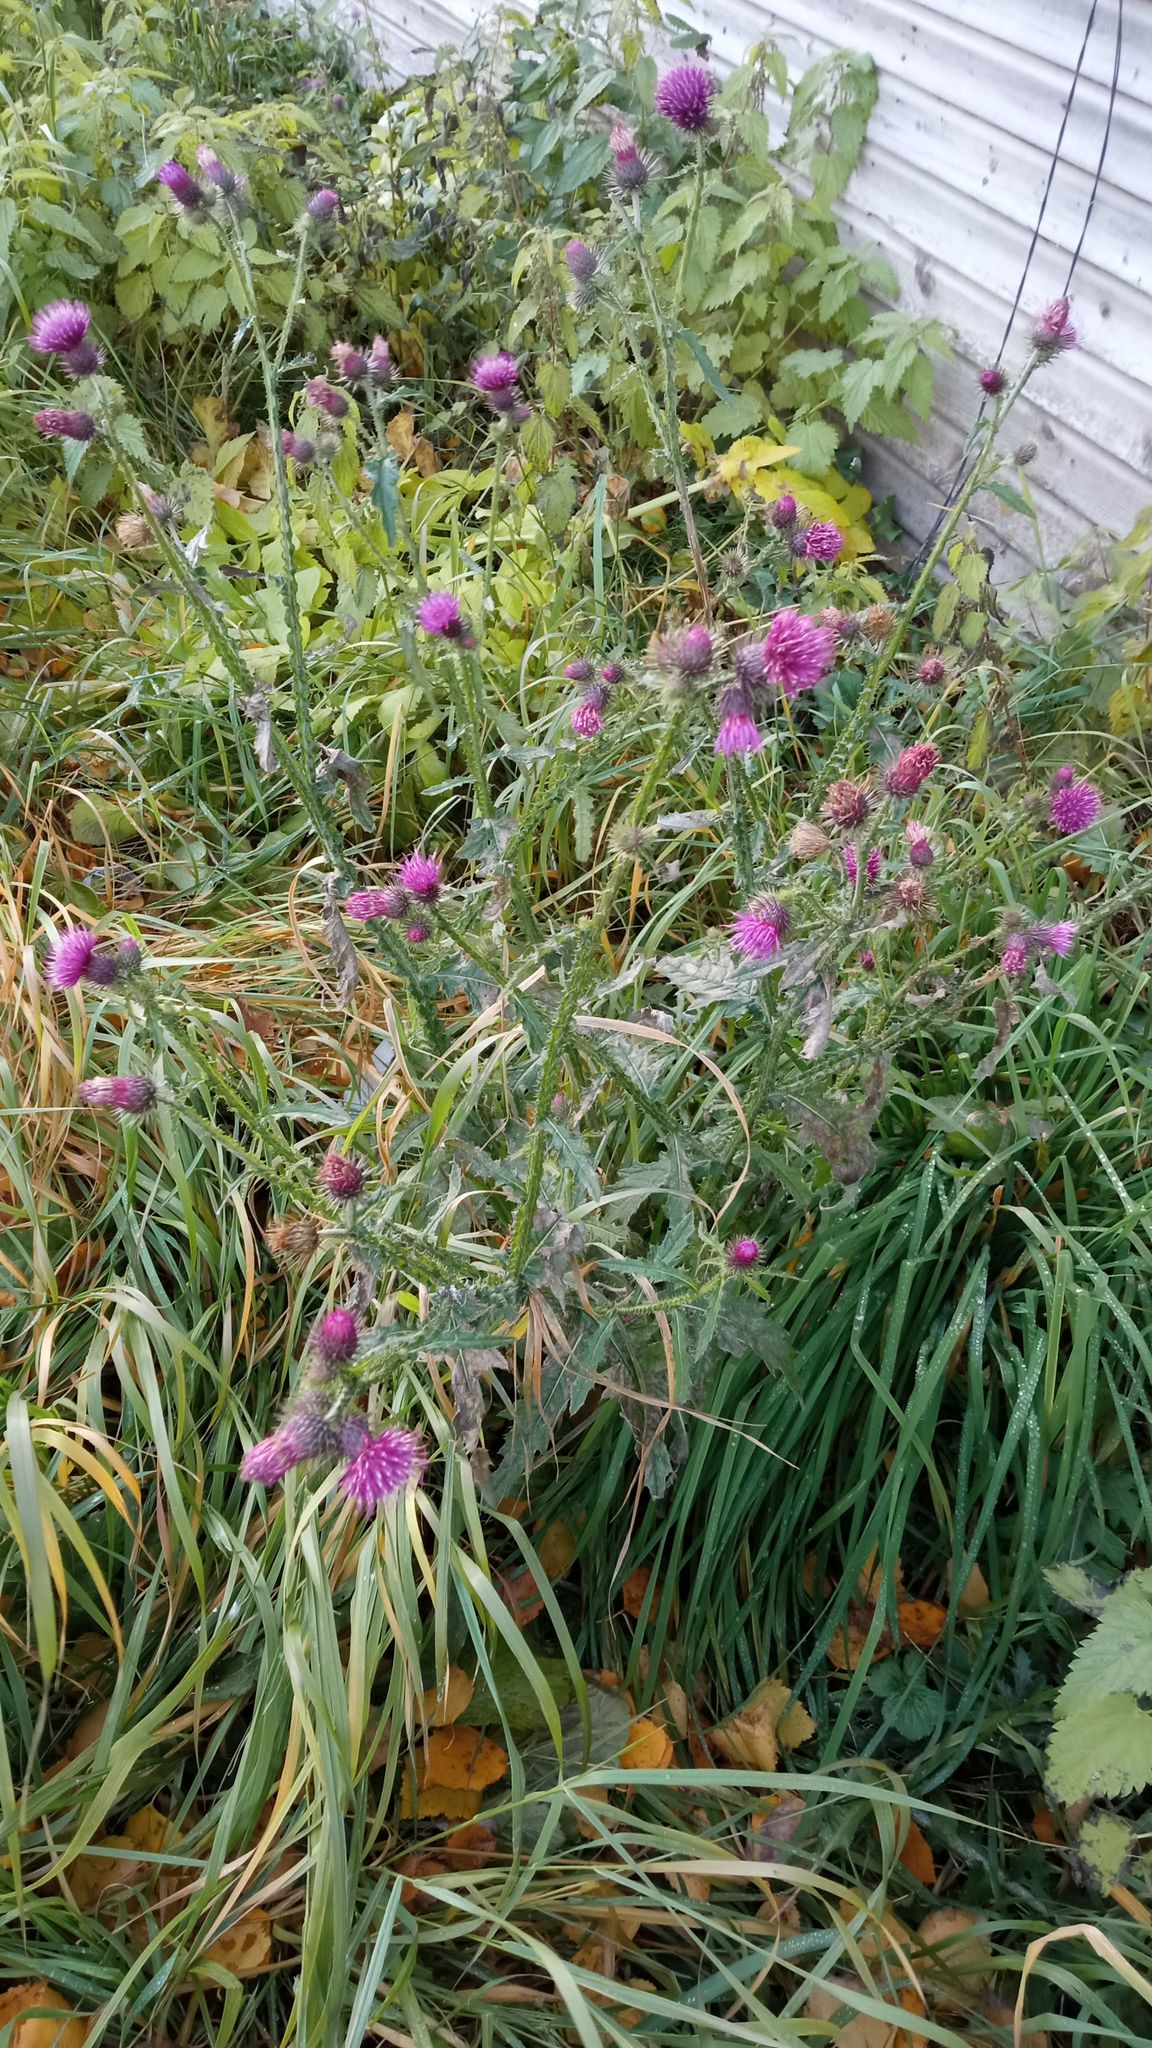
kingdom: Plantae
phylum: Tracheophyta
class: Magnoliopsida
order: Asterales
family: Asteraceae
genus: Carduus
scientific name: Carduus crispus
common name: Welted thistle
